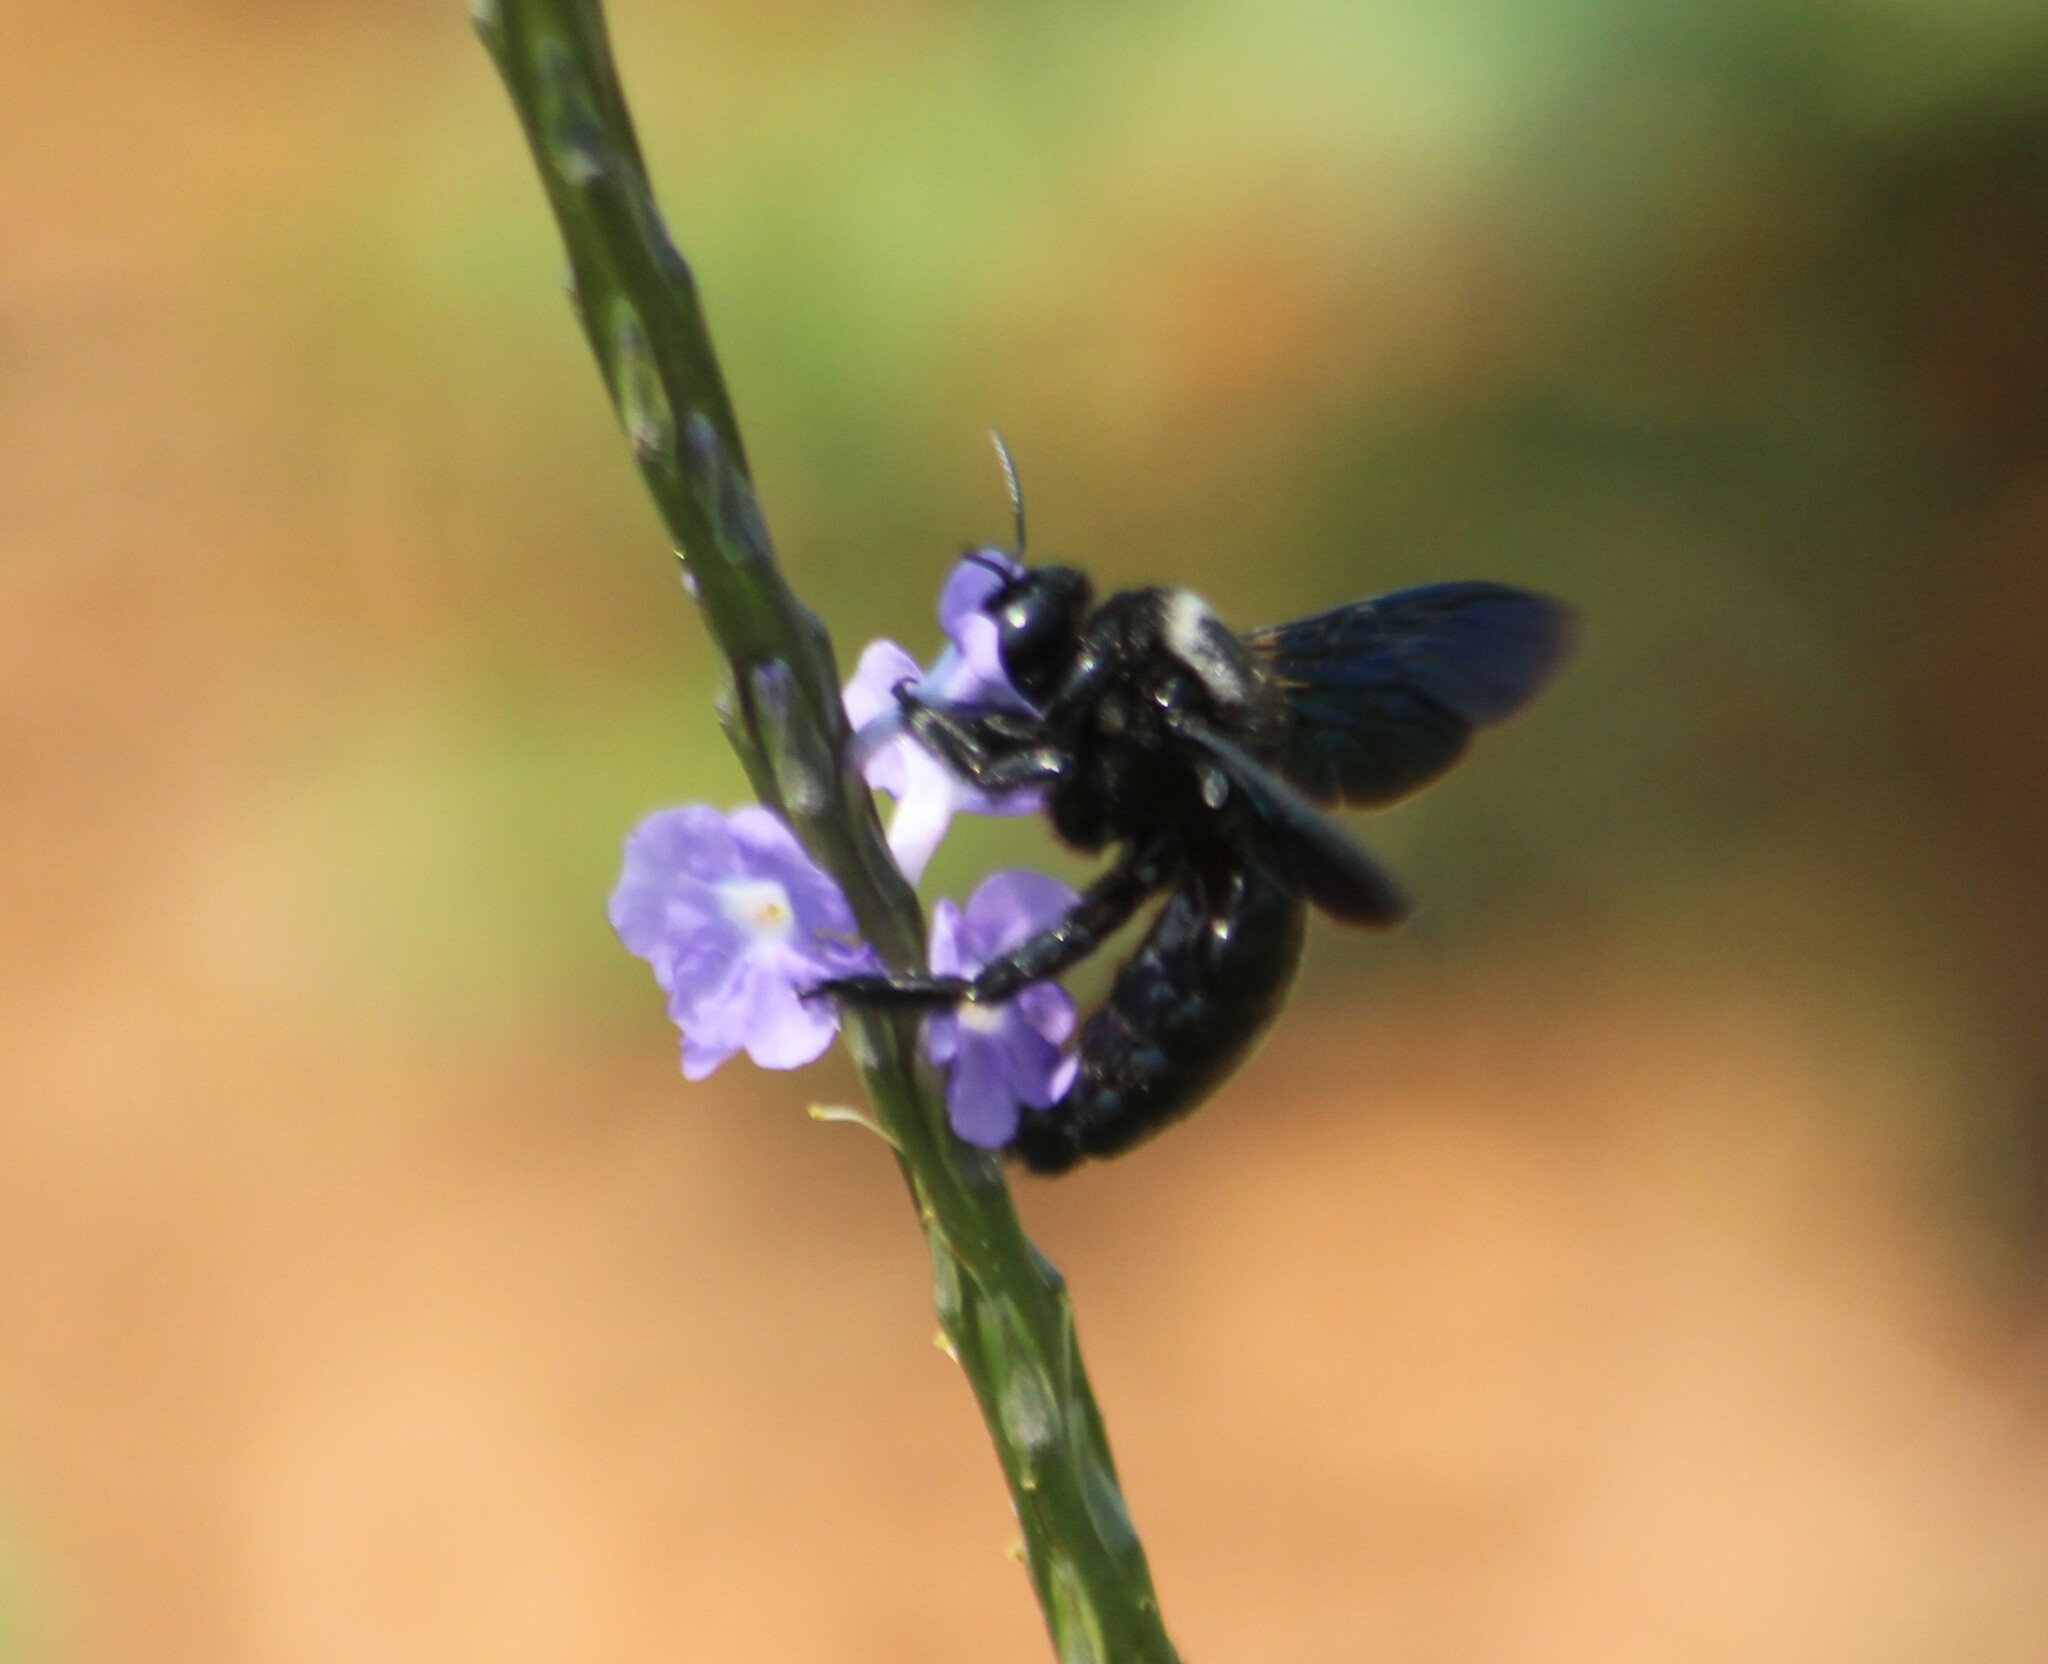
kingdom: Animalia
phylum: Arthropoda
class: Insecta
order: Hymenoptera
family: Apidae
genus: Xylocopa
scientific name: Xylocopa fenestrata
